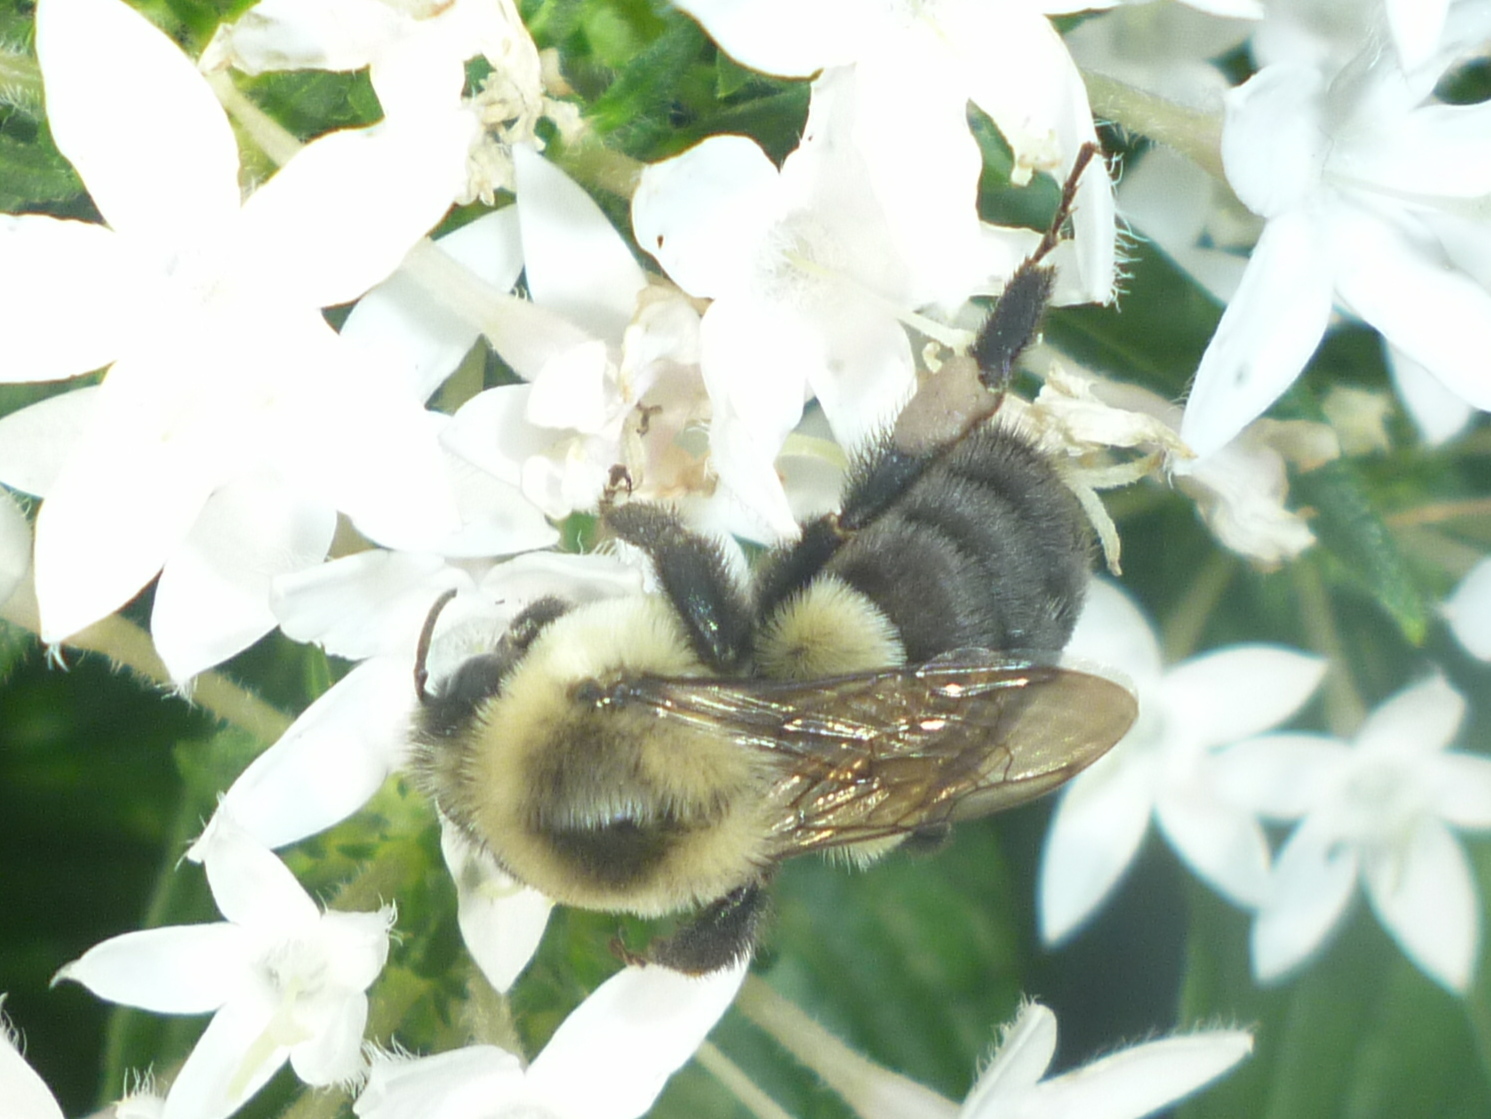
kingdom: Animalia
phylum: Arthropoda
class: Insecta
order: Hymenoptera
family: Apidae
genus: Bombus
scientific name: Bombus impatiens
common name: Common eastern bumble bee
